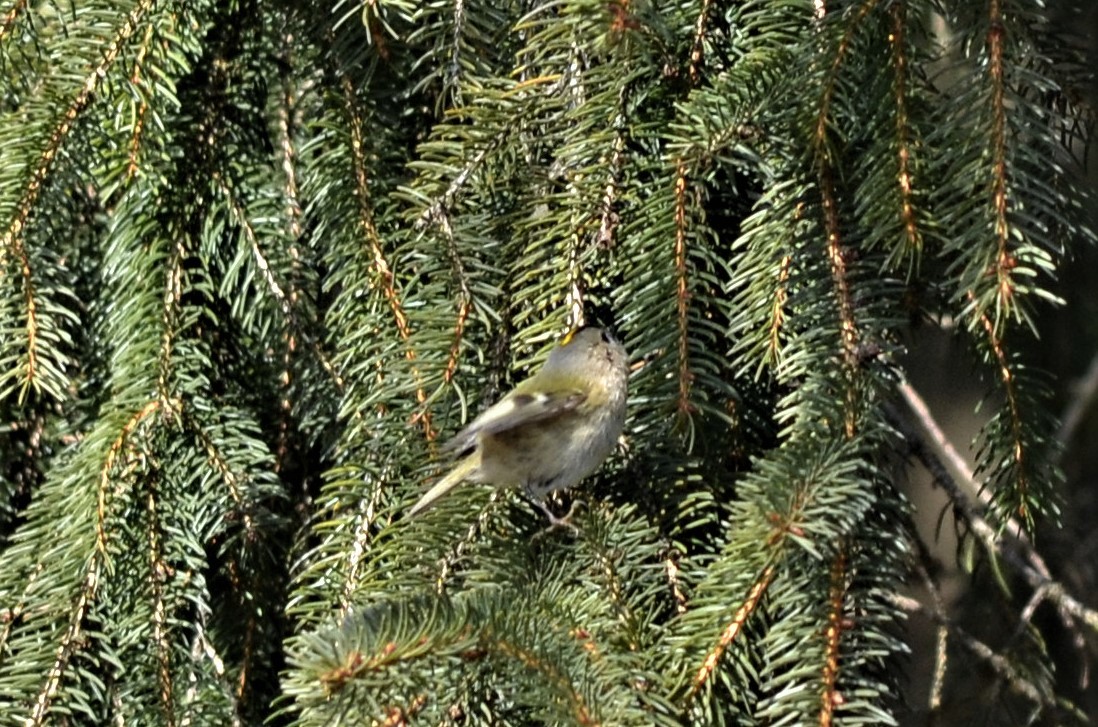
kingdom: Animalia
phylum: Chordata
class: Aves
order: Passeriformes
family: Regulidae
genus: Regulus
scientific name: Regulus regulus
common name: Goldcrest
